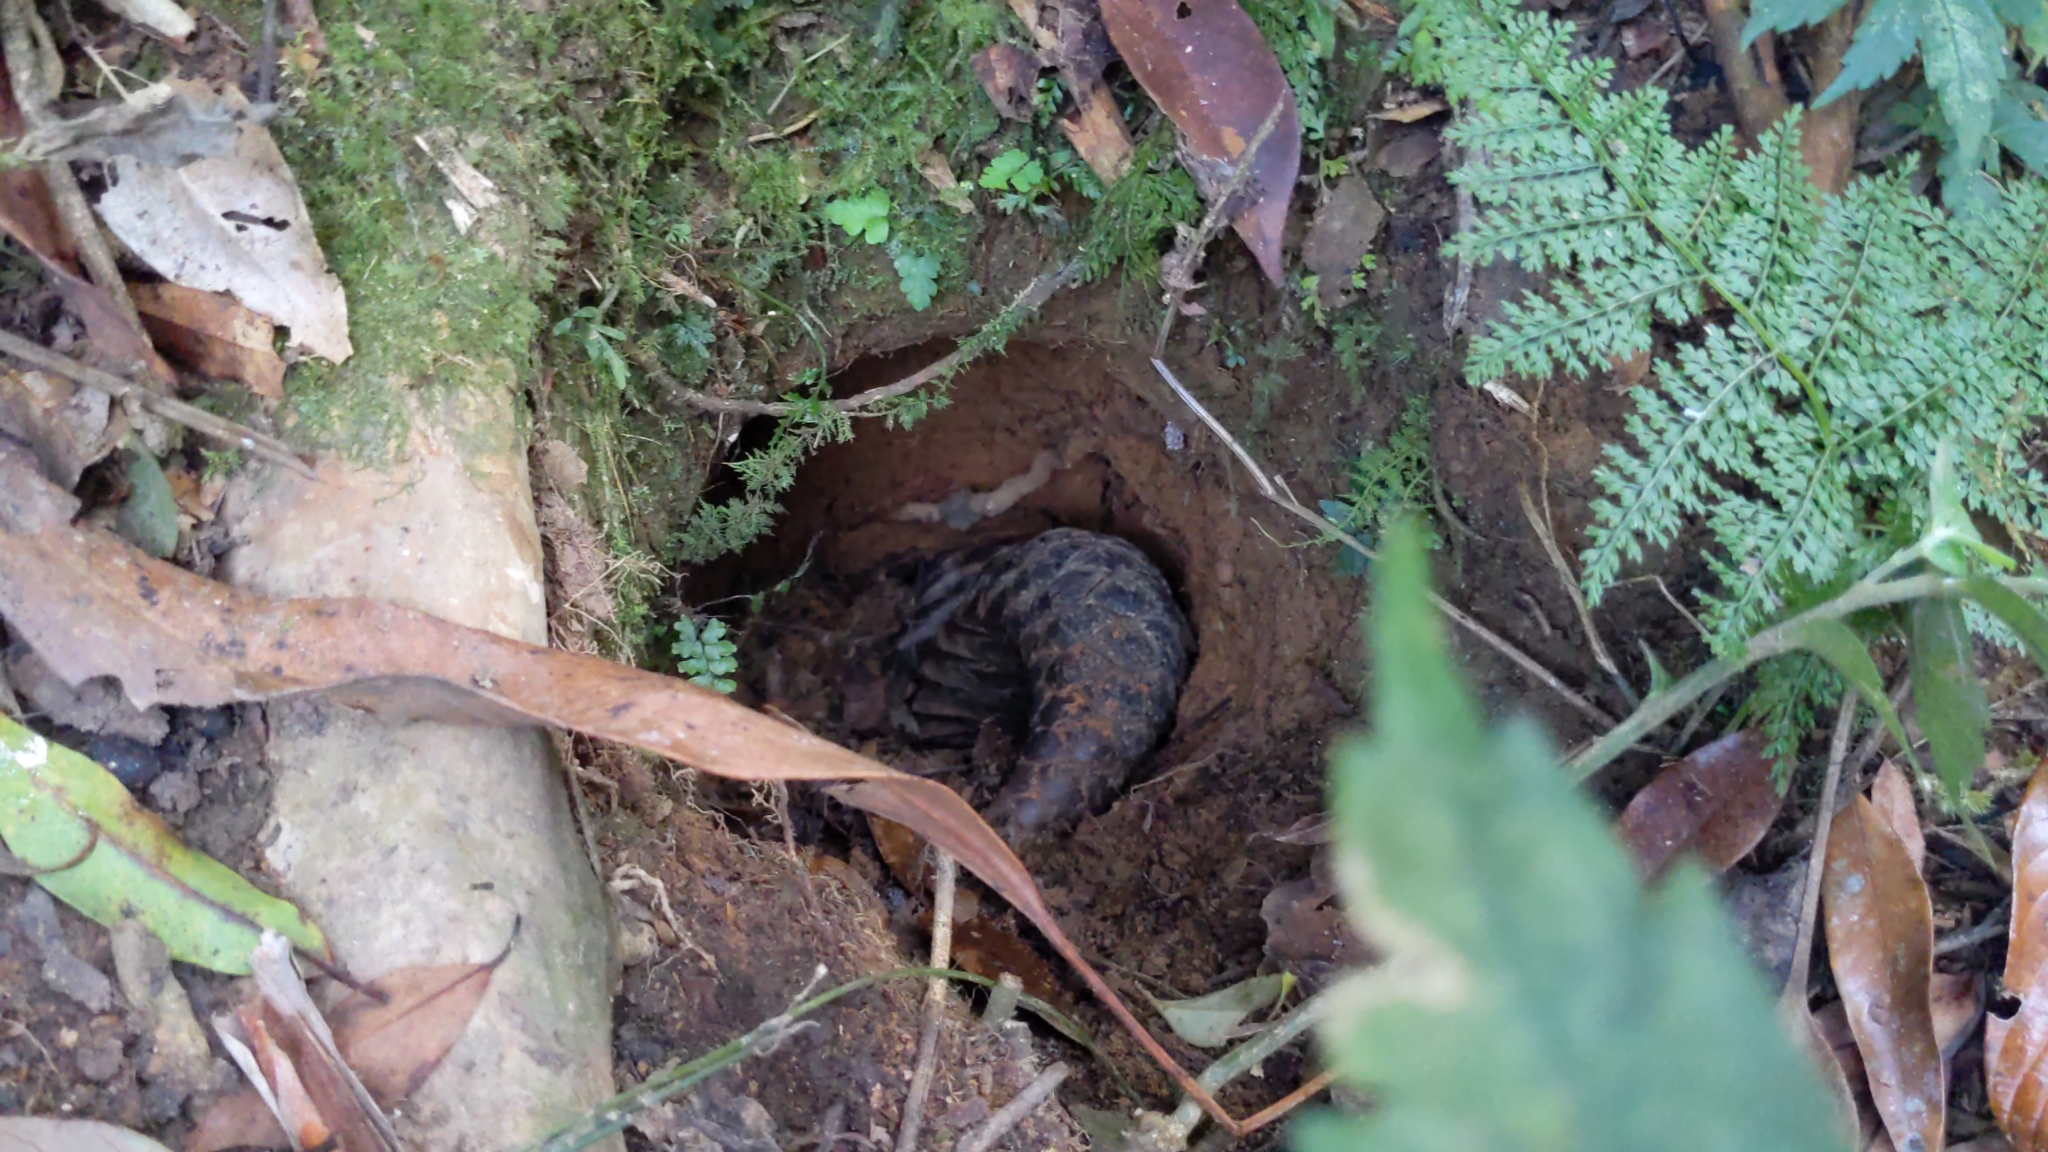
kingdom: Animalia
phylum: Chordata
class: Mammalia
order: Pholidota
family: Manidae
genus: Manis
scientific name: Manis pentadactyla
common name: Chinese pangolin
